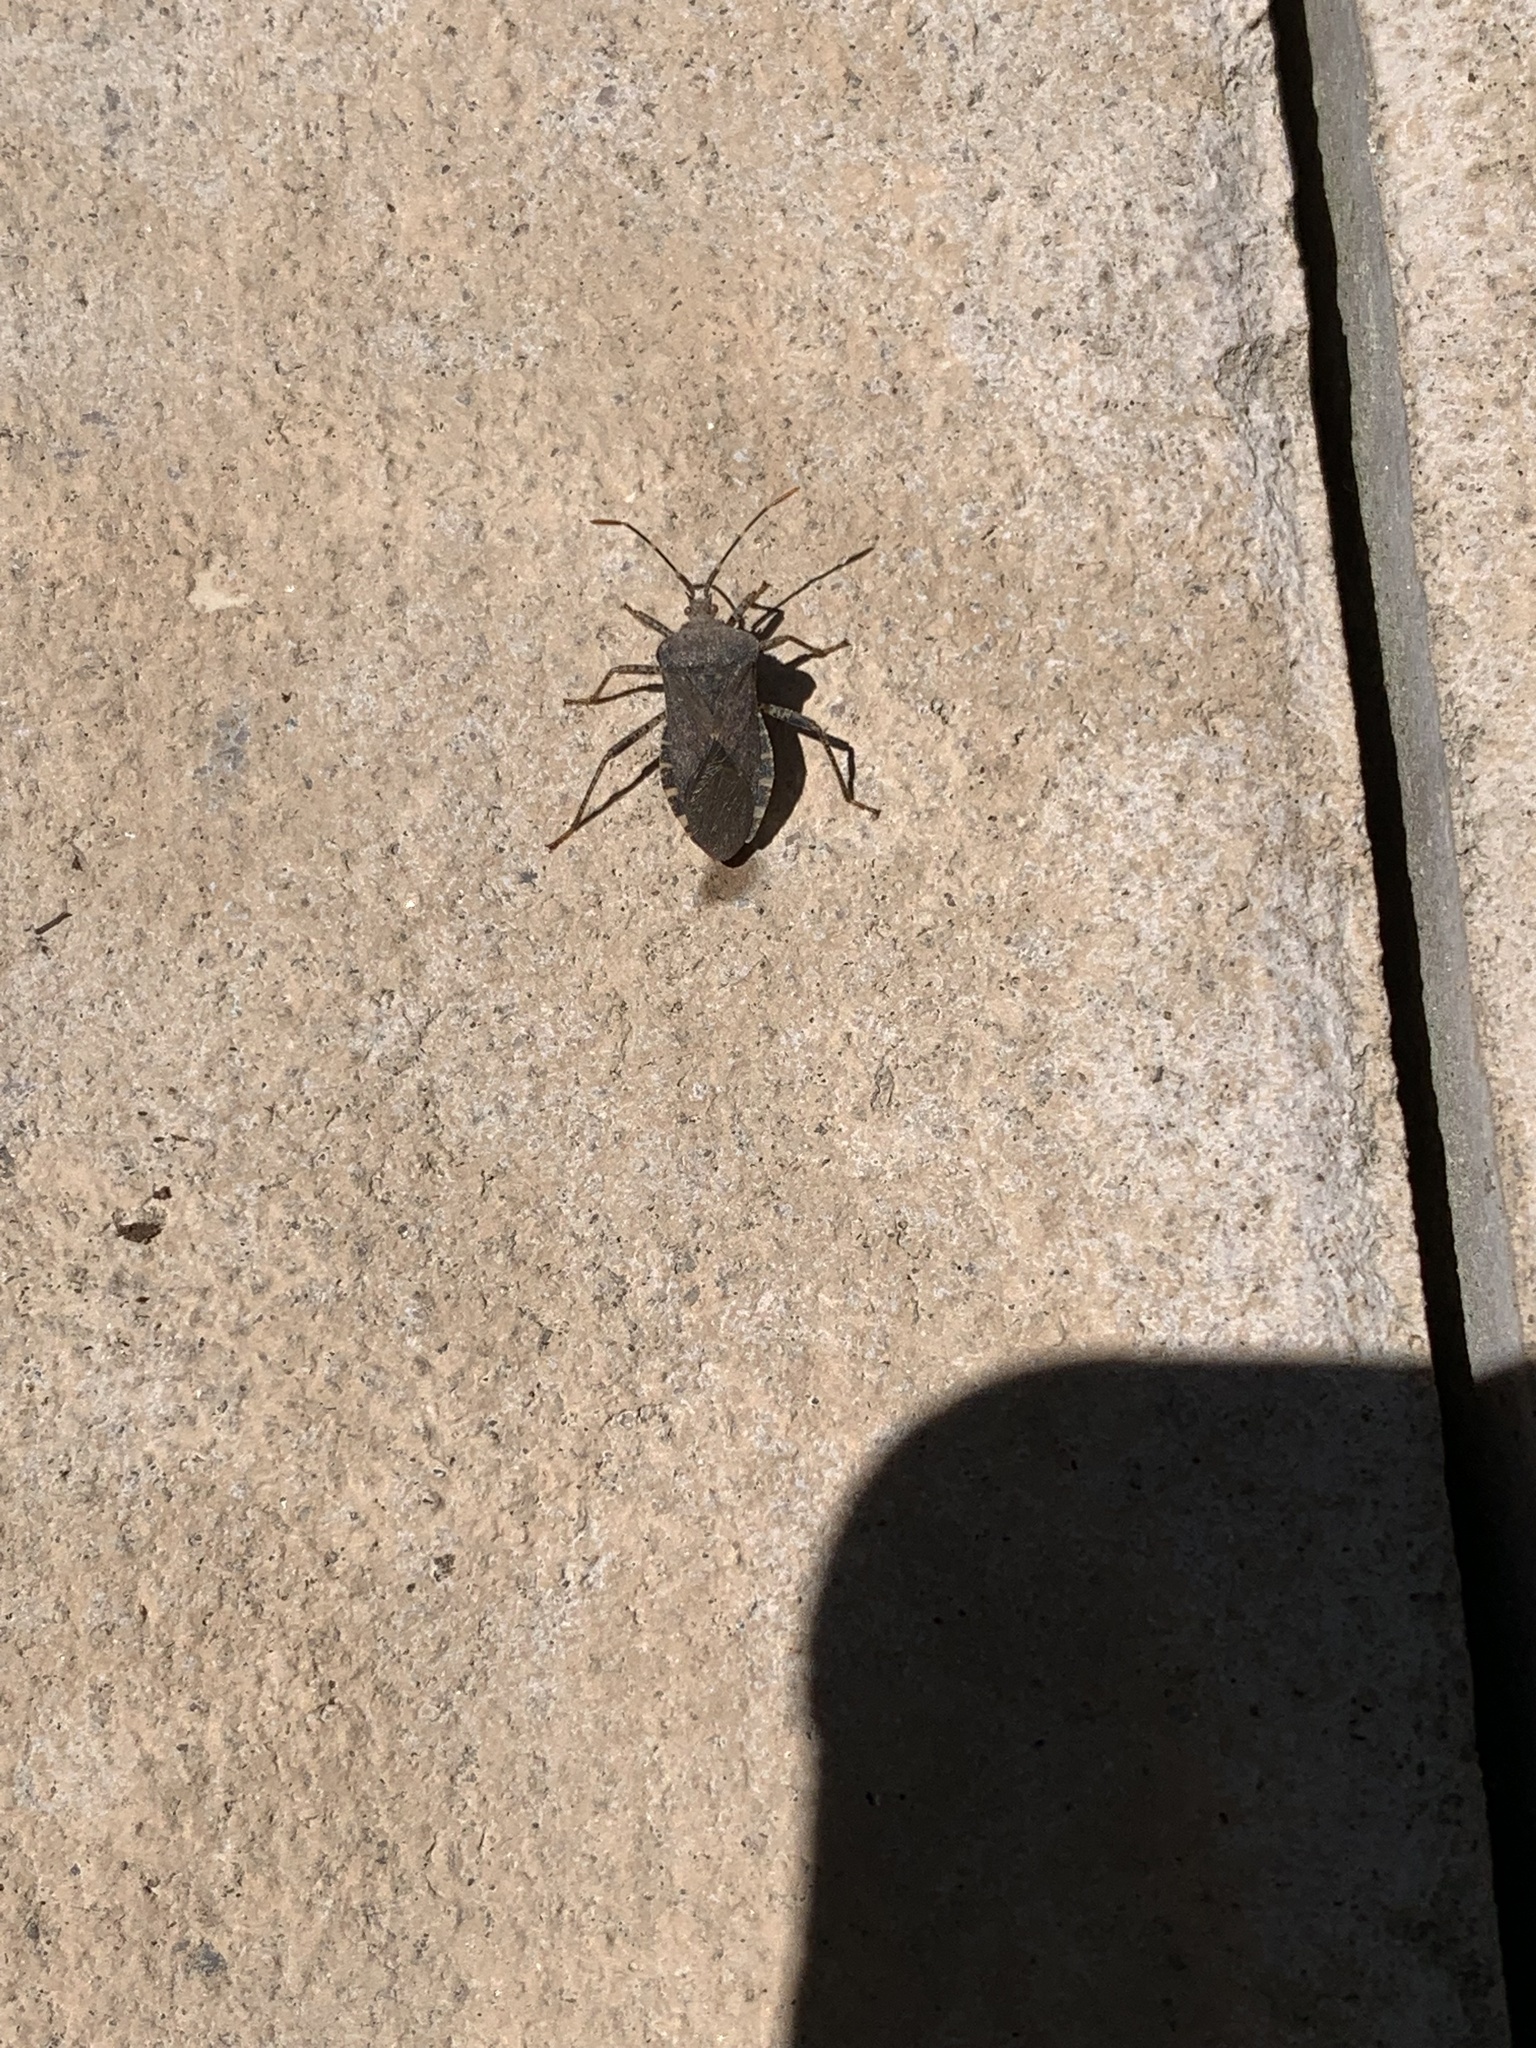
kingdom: Animalia
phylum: Arthropoda
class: Insecta
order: Hemiptera
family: Coreidae
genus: Anasa
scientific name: Anasa armigera
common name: Horned squash bug
